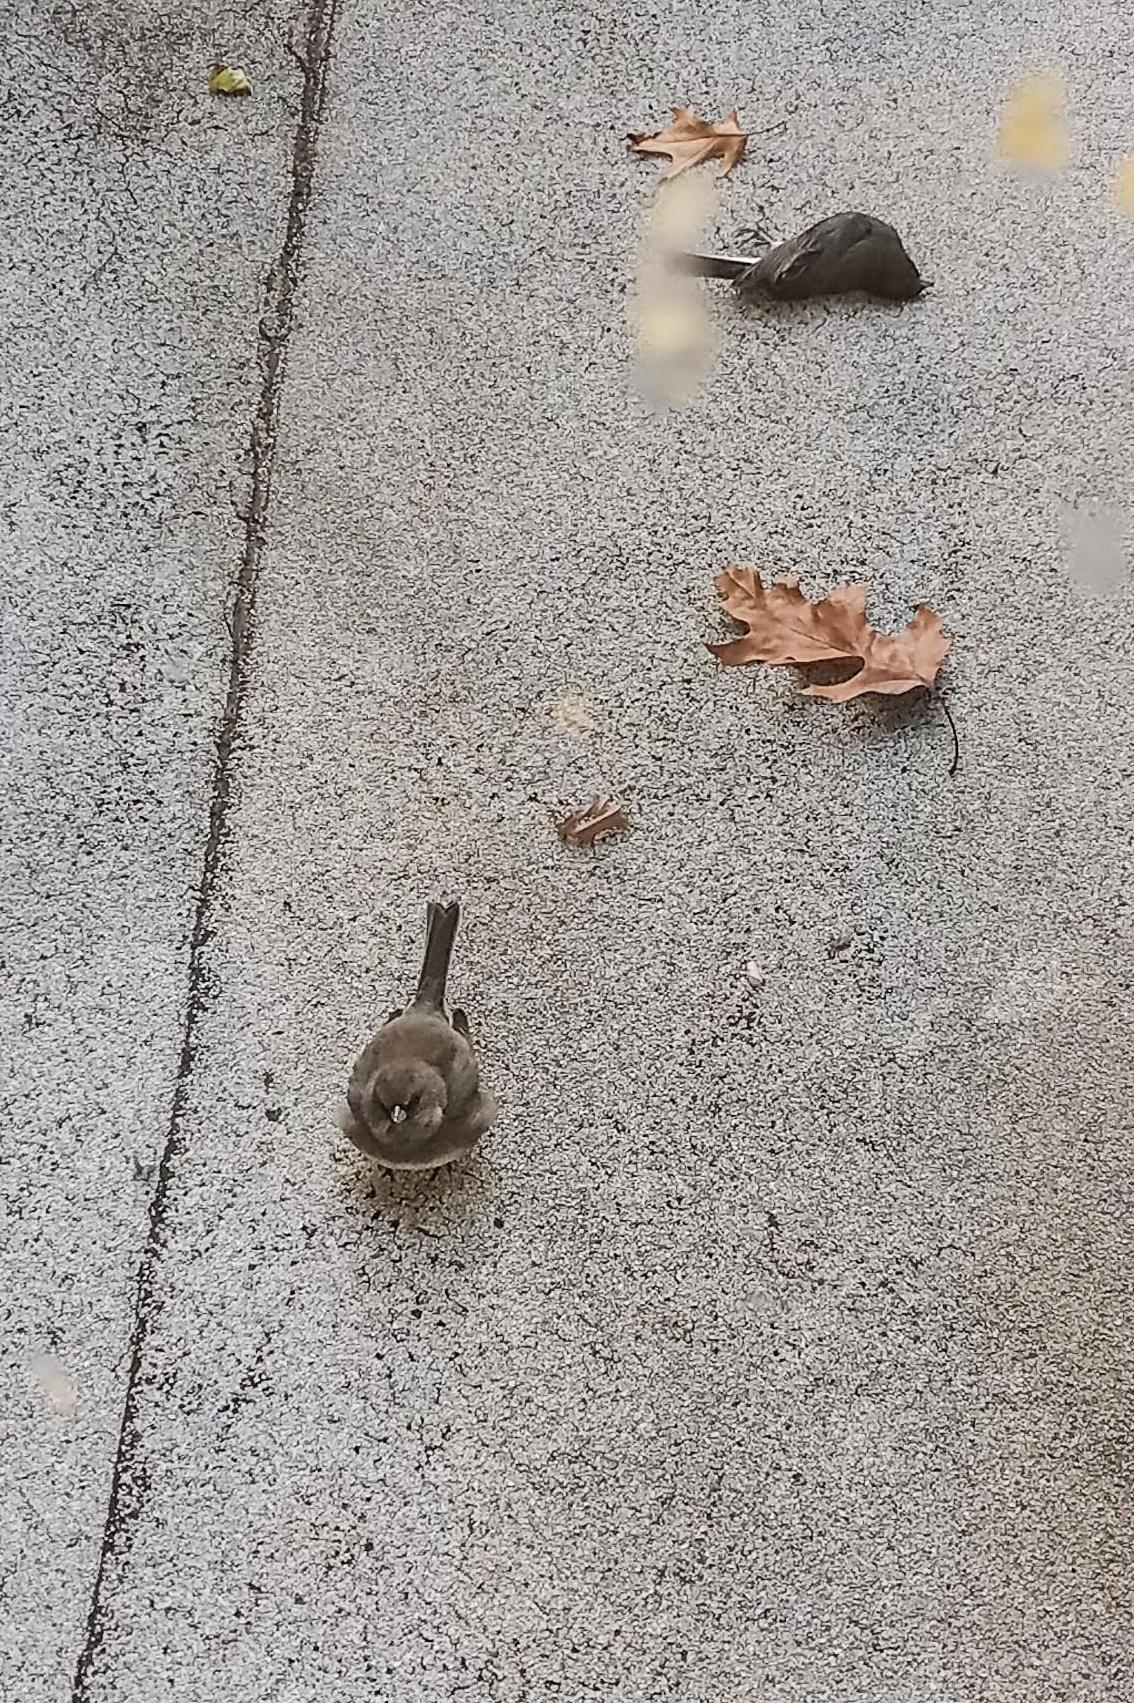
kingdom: Animalia
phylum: Chordata
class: Aves
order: Passeriformes
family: Passerellidae
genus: Junco
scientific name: Junco hyemalis
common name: Dark-eyed junco
